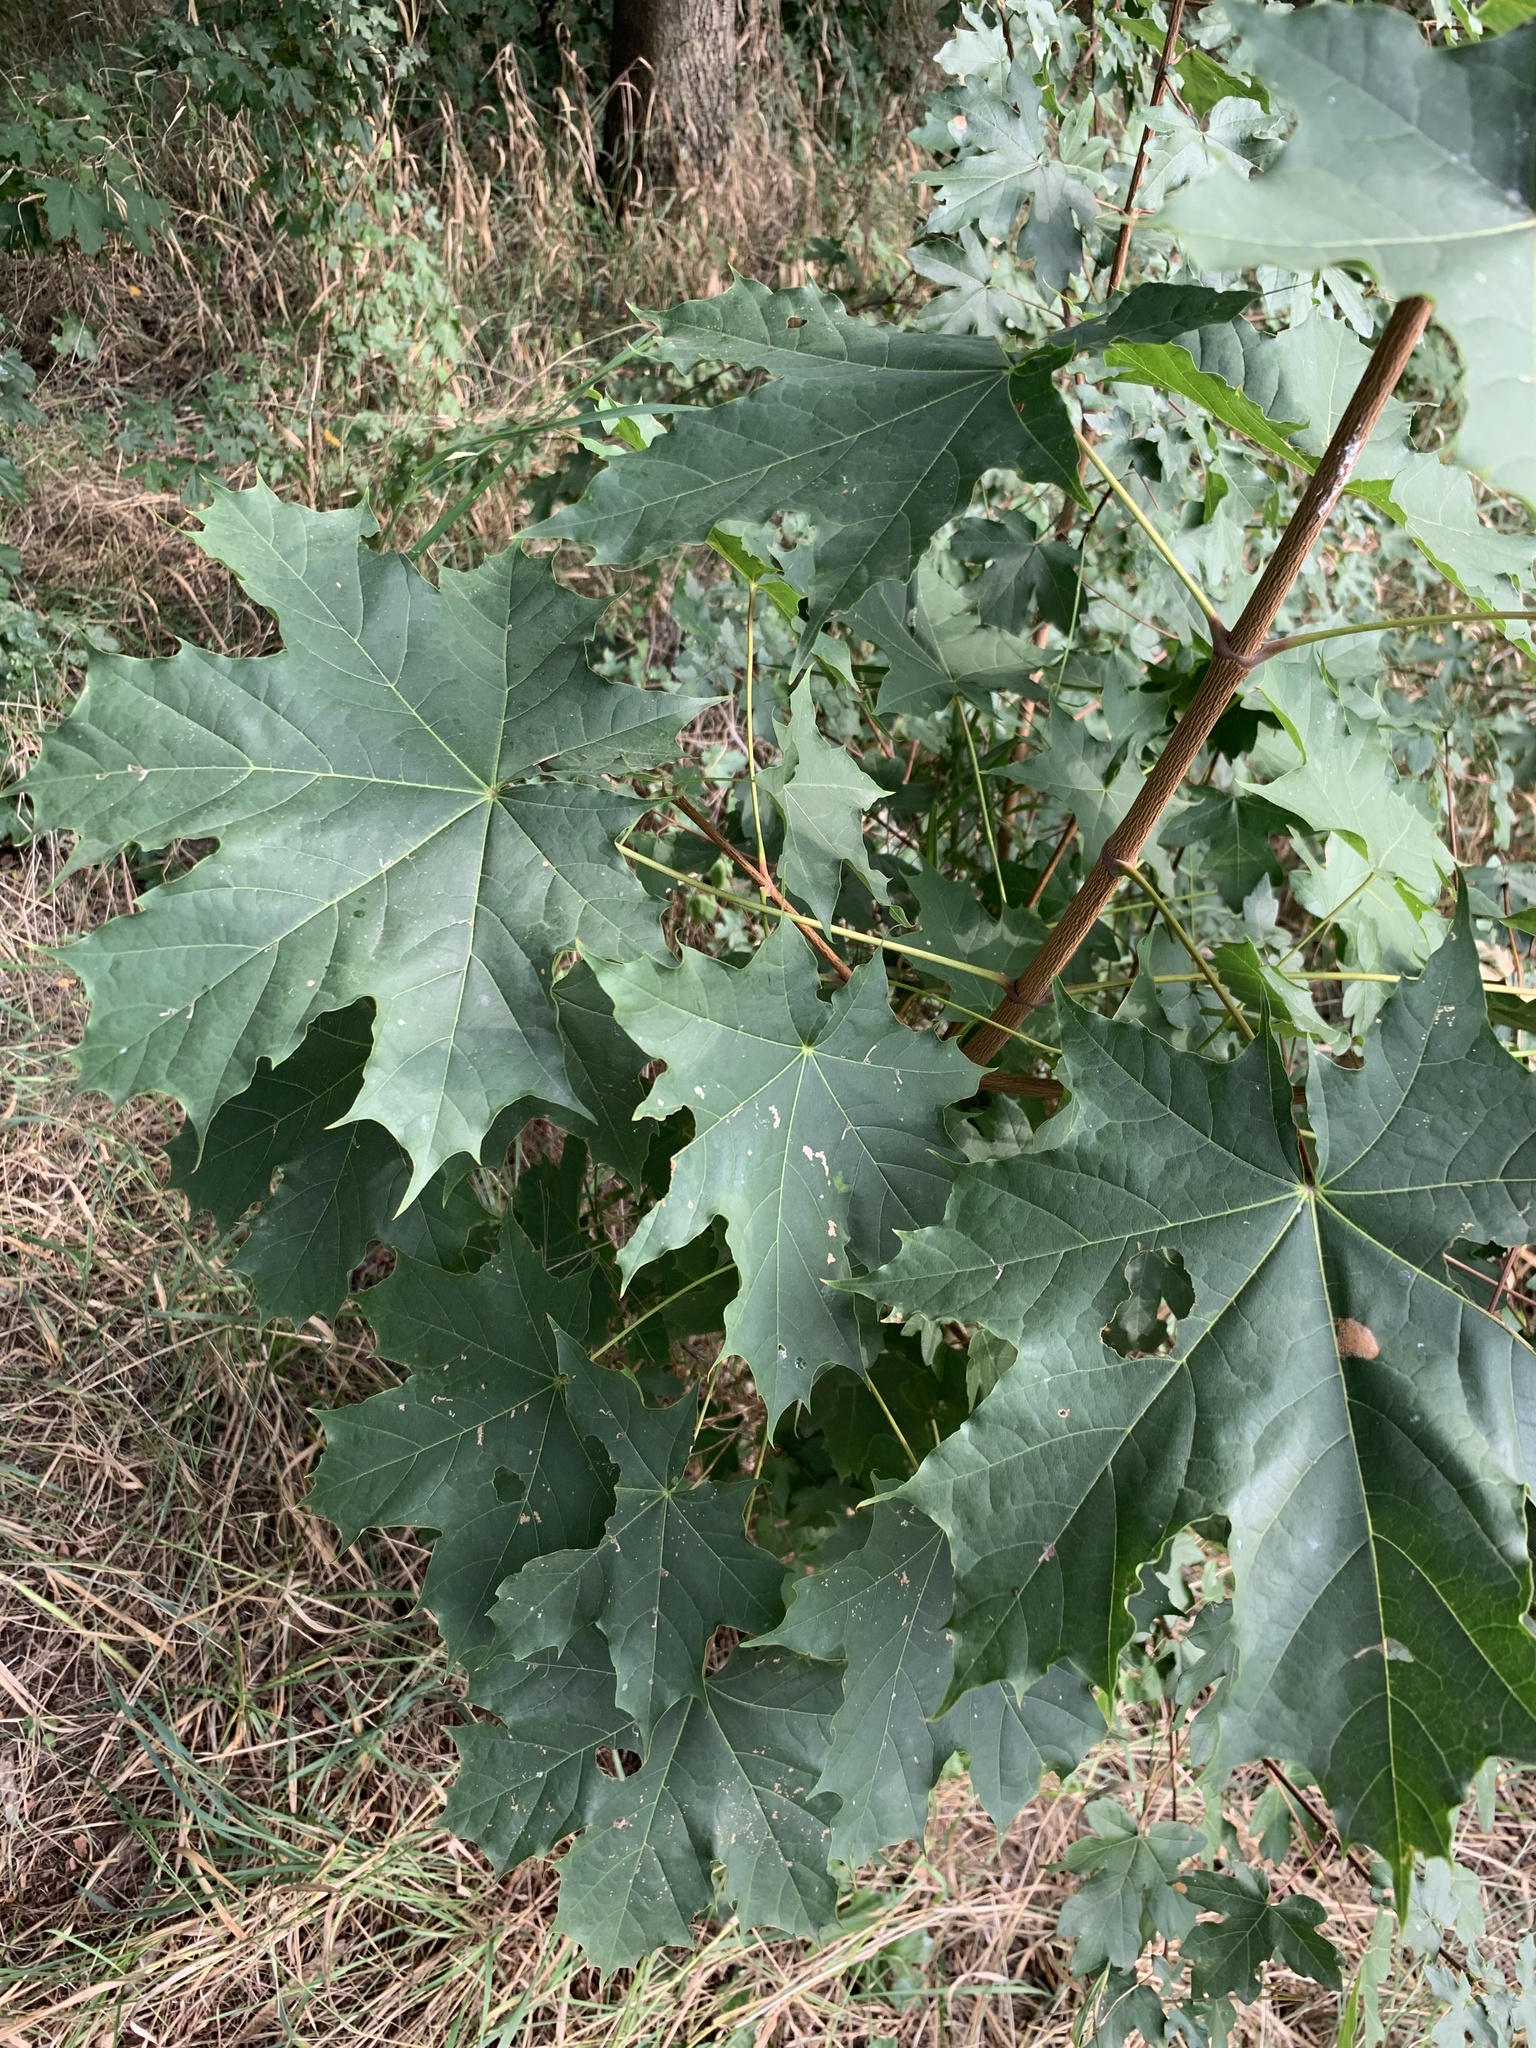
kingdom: Plantae
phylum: Tracheophyta
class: Magnoliopsida
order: Sapindales
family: Sapindaceae
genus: Acer
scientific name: Acer platanoides
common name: Norway maple
